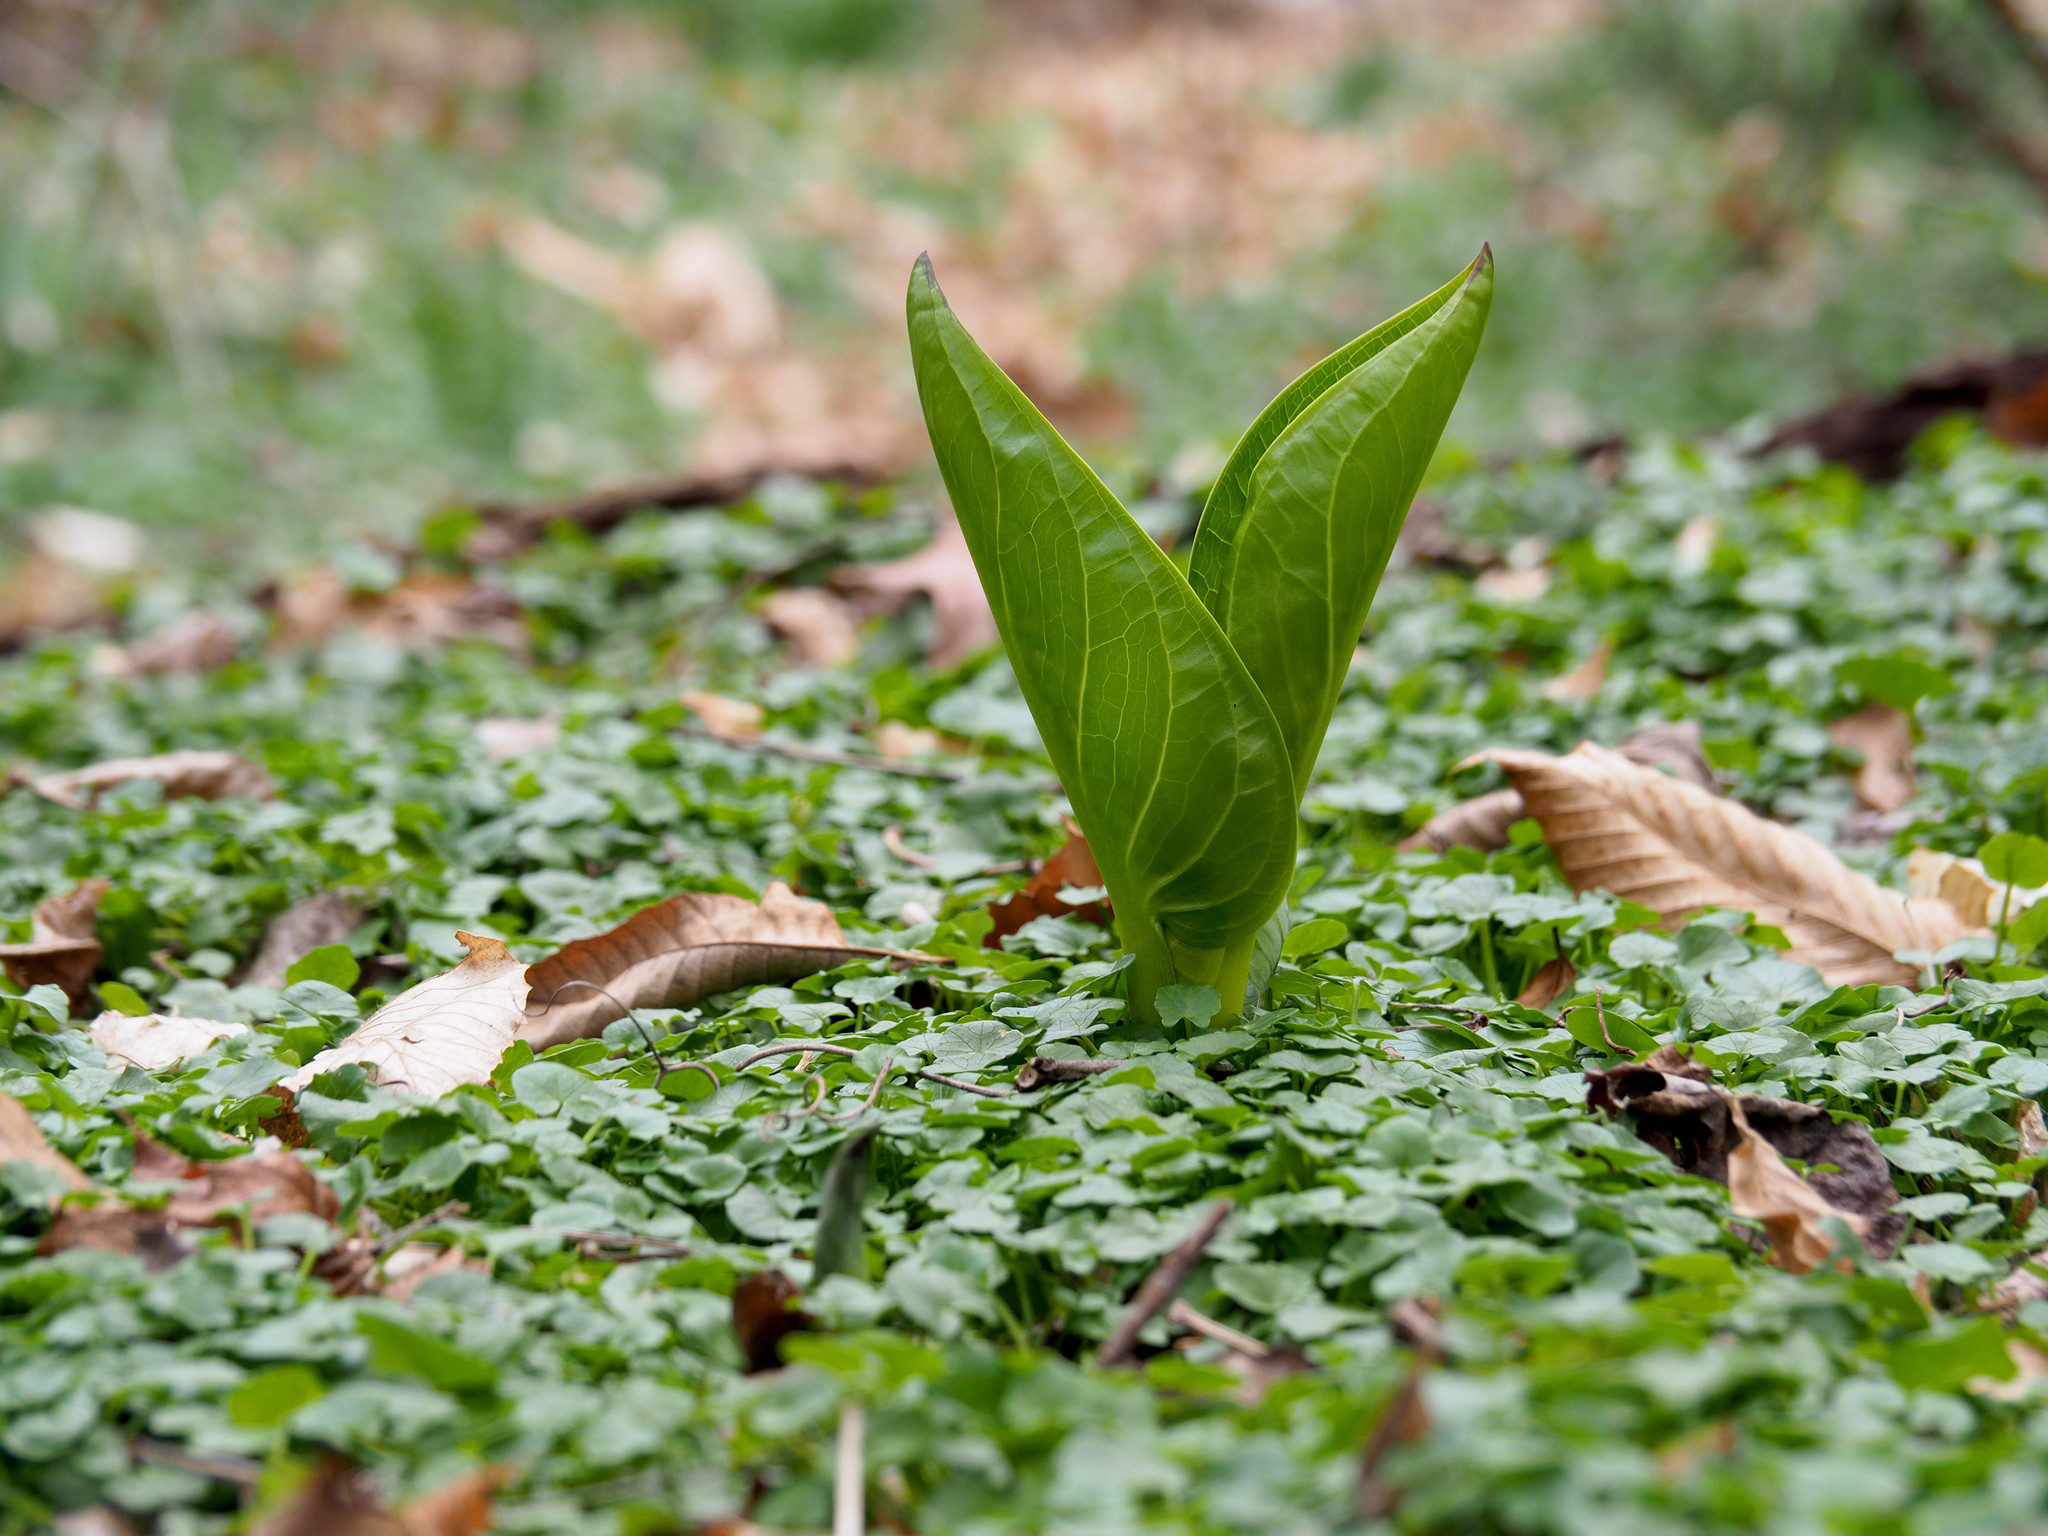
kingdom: Plantae
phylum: Tracheophyta
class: Liliopsida
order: Alismatales
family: Araceae
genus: Symplocarpus
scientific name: Symplocarpus foetidus
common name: Eastern skunk cabbage
